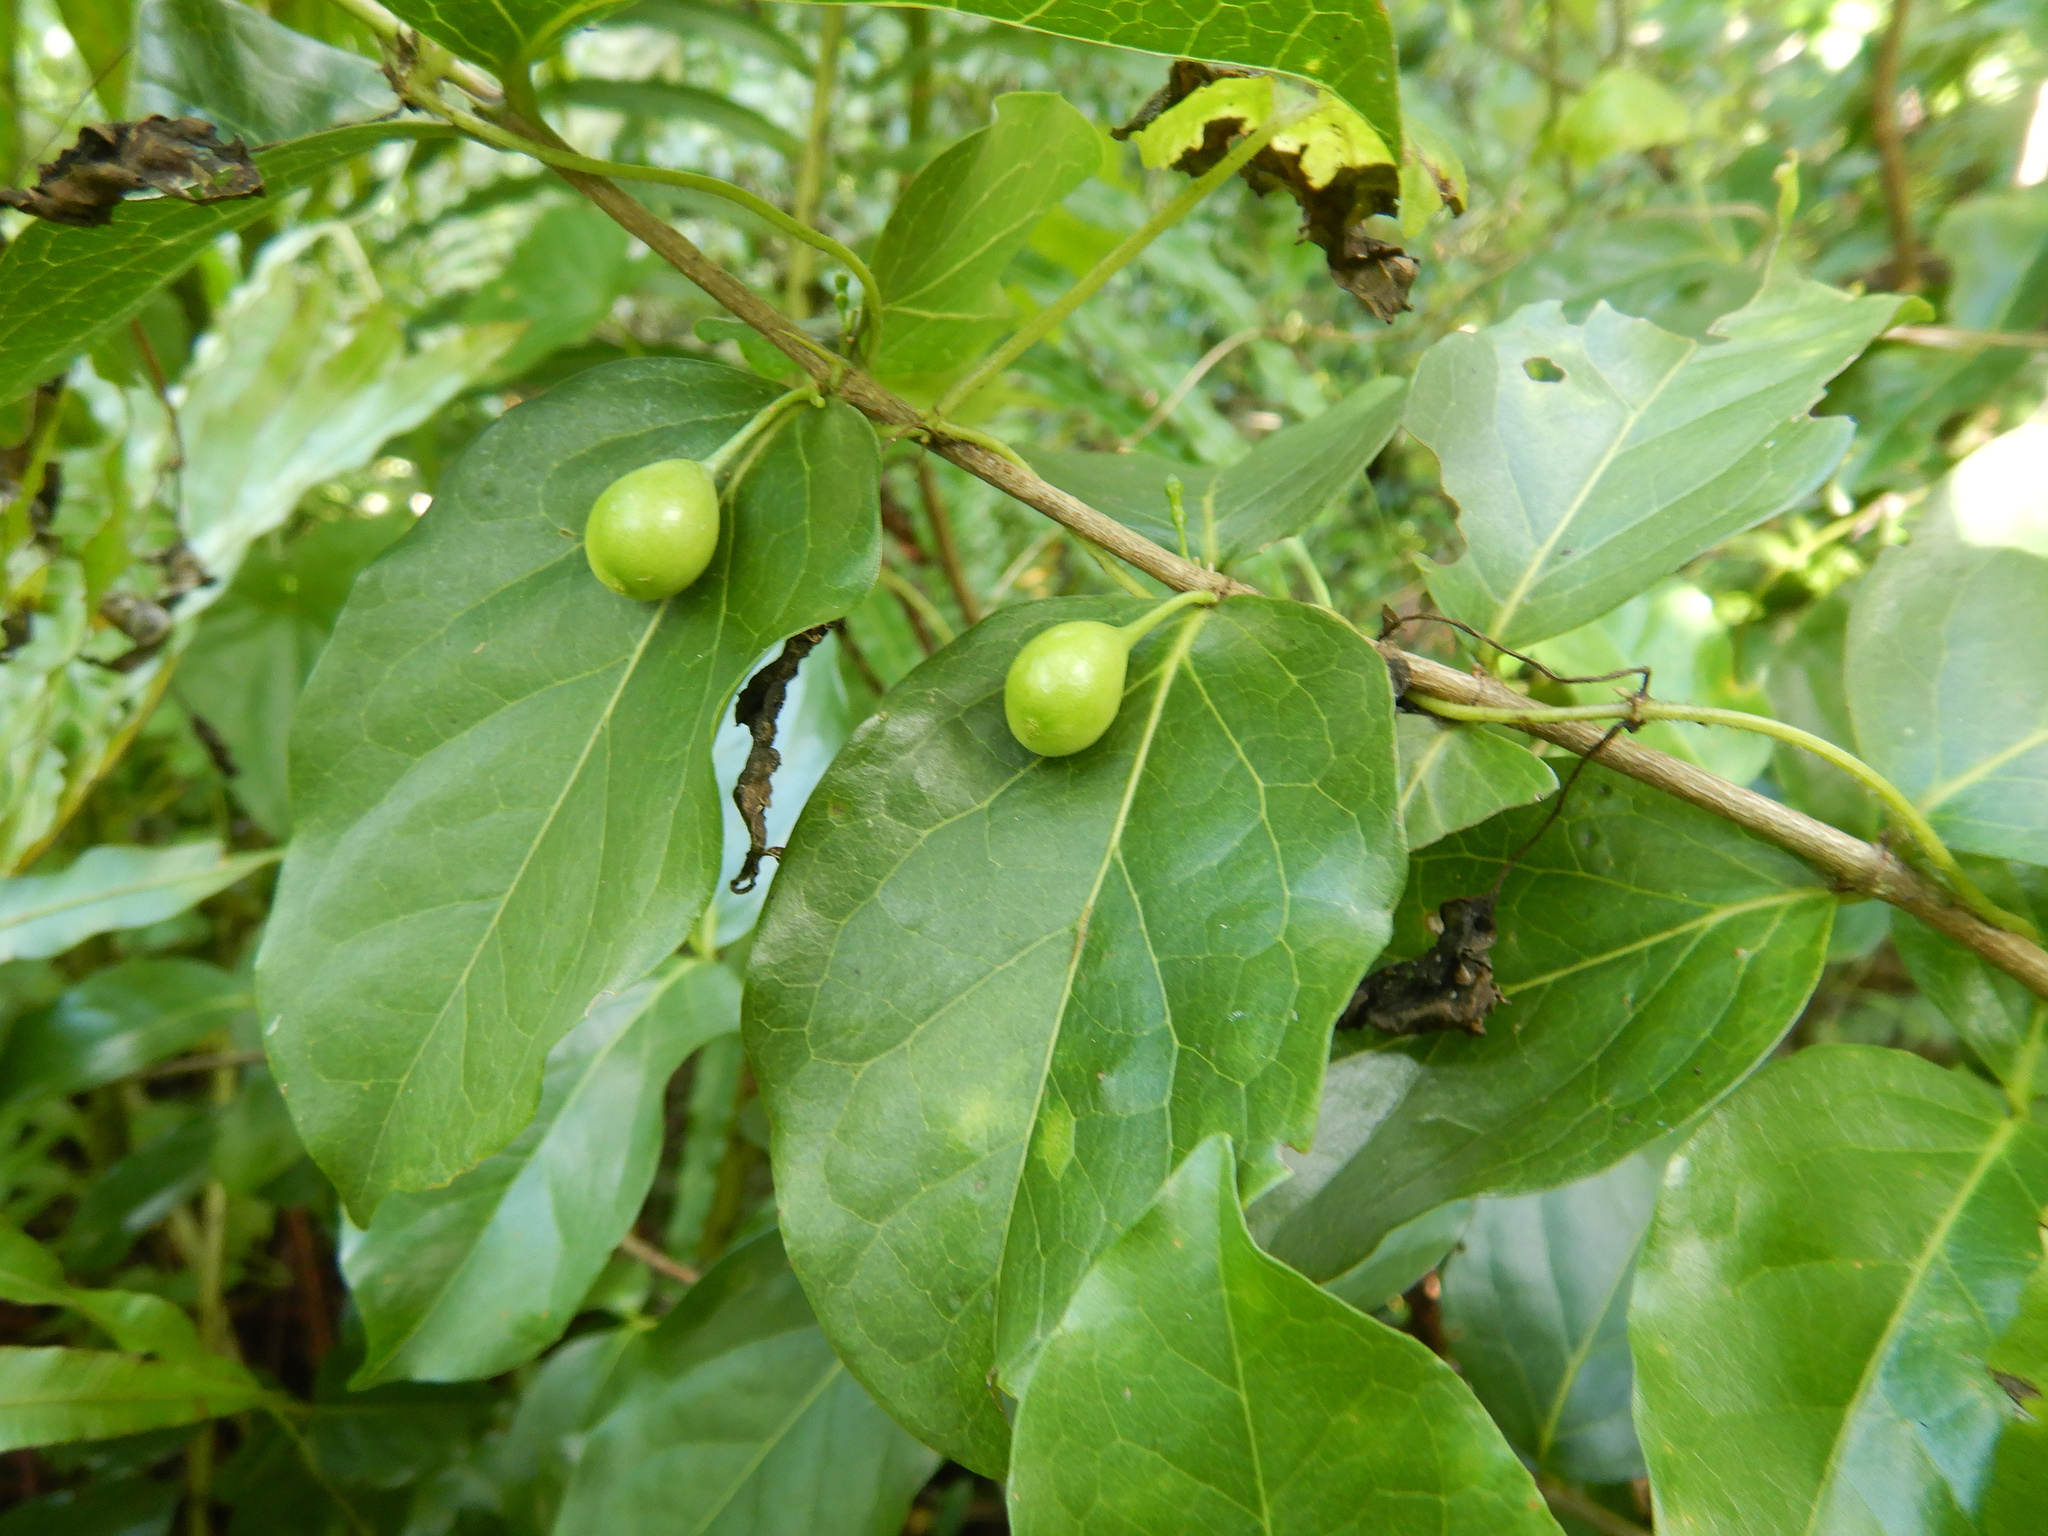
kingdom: Plantae
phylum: Tracheophyta
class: Magnoliopsida
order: Gentianales
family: Rubiaceae
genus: Cyclophyllum
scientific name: Cyclophyllum barbatum
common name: Cyclophyllum
